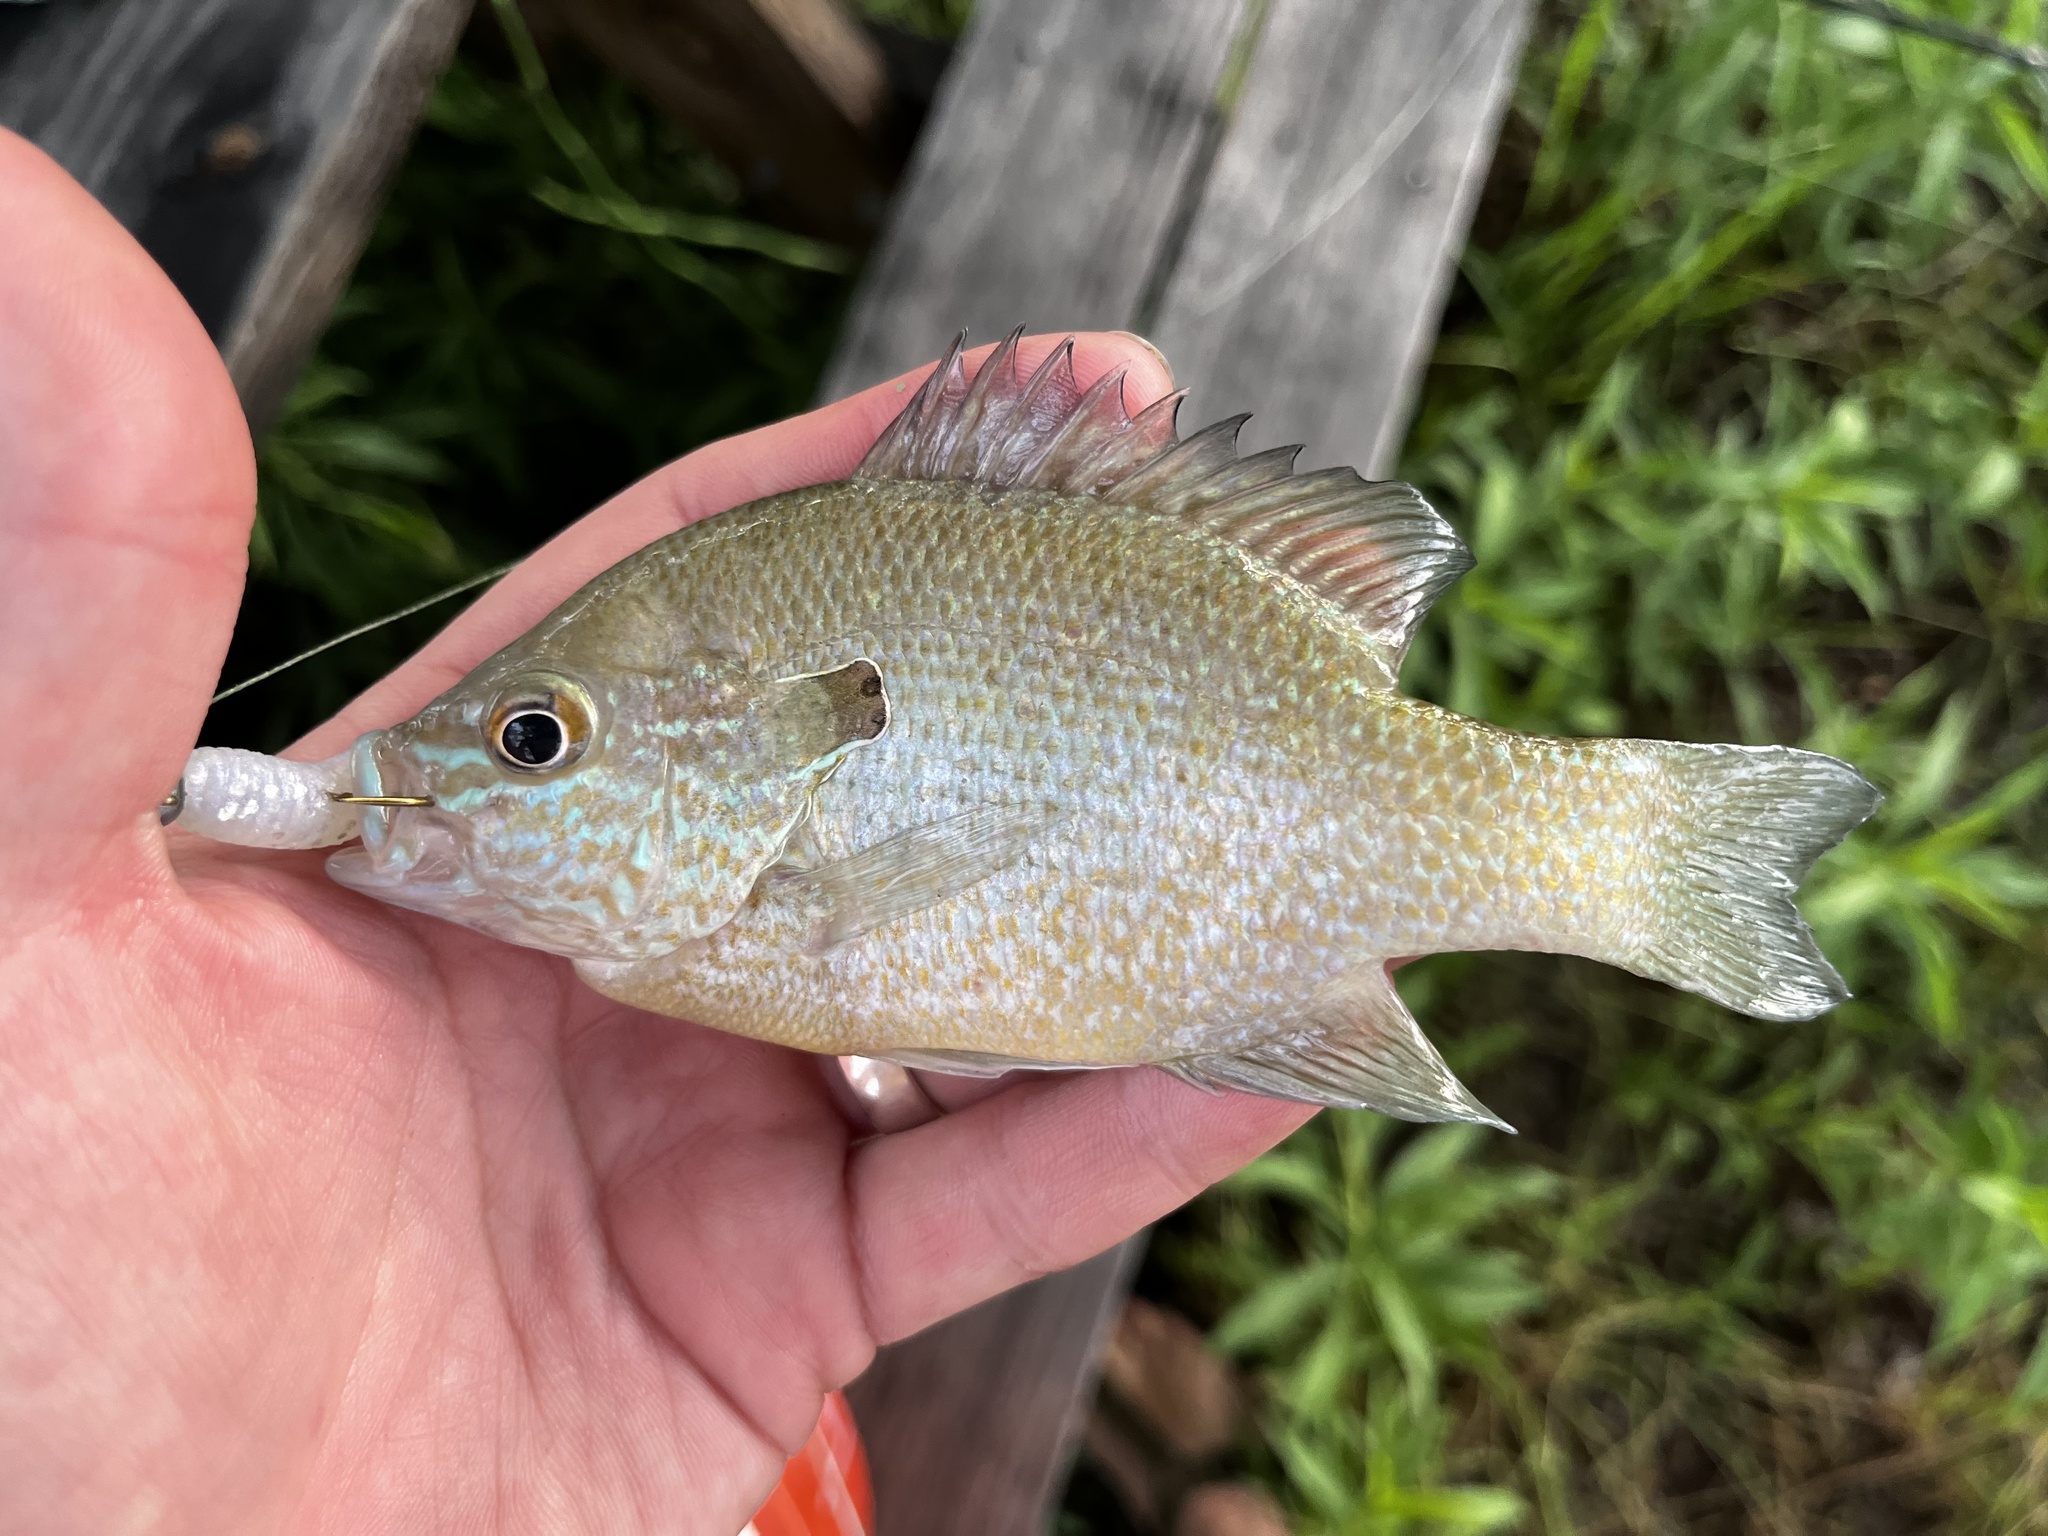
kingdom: Animalia
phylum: Chordata
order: Perciformes
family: Centrarchidae
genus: Lepomis
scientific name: Lepomis aquilensis
